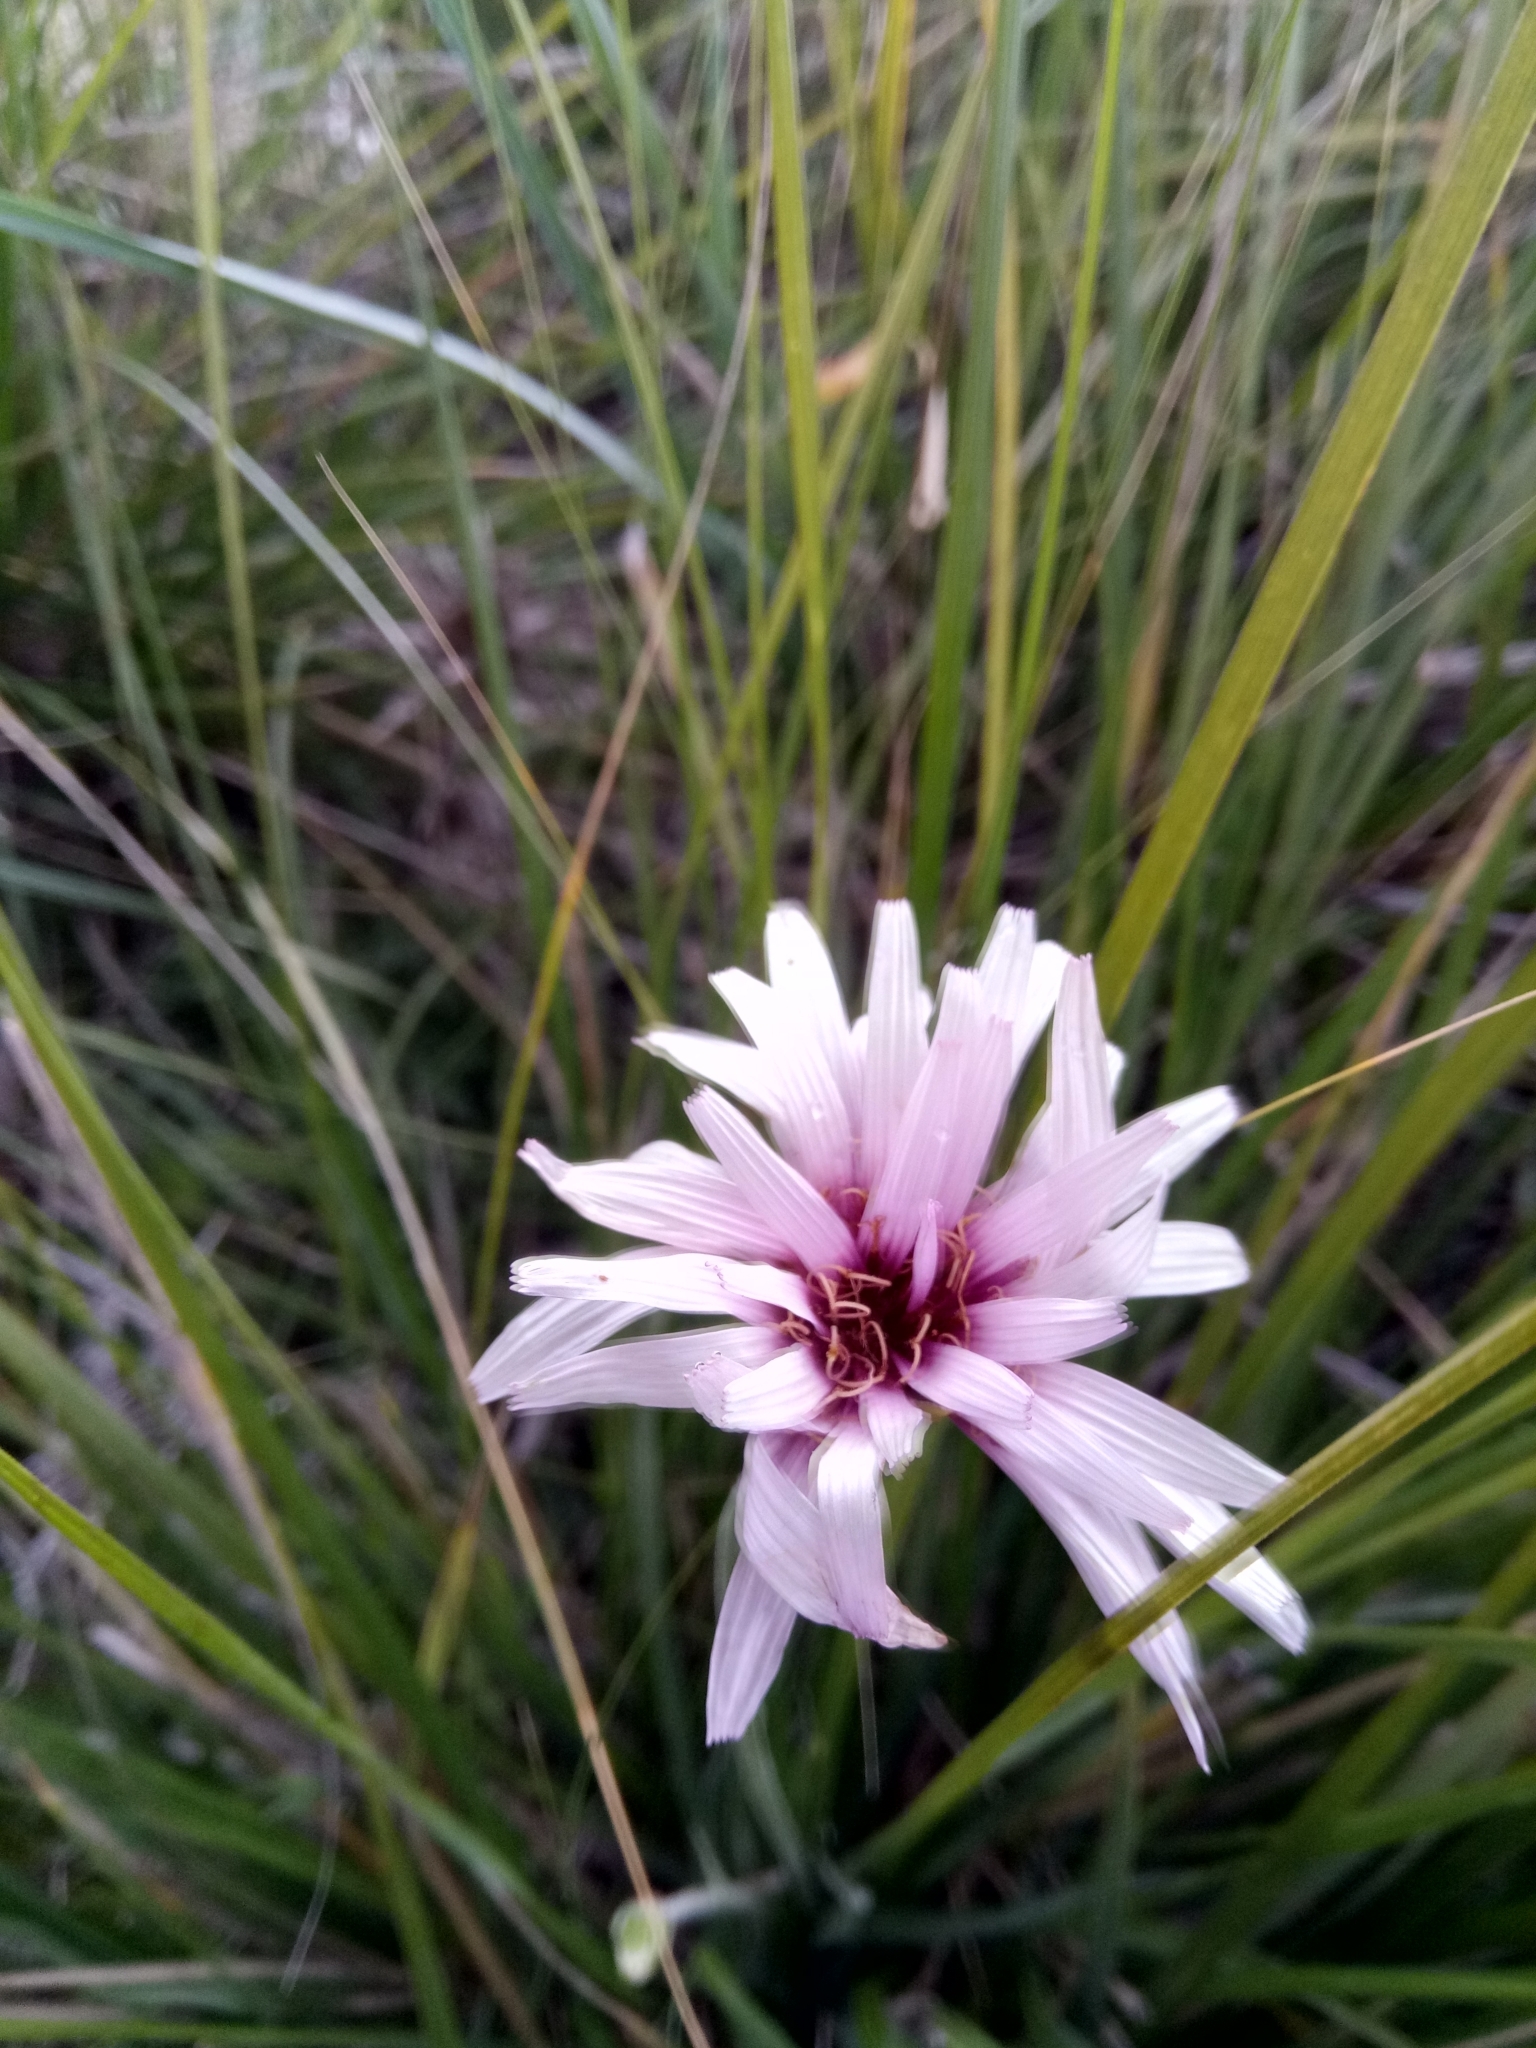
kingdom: Plantae
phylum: Tracheophyta
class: Magnoliopsida
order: Asterales
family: Asteraceae
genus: Pseudopodospermum
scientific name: Pseudopodospermum undulatum
